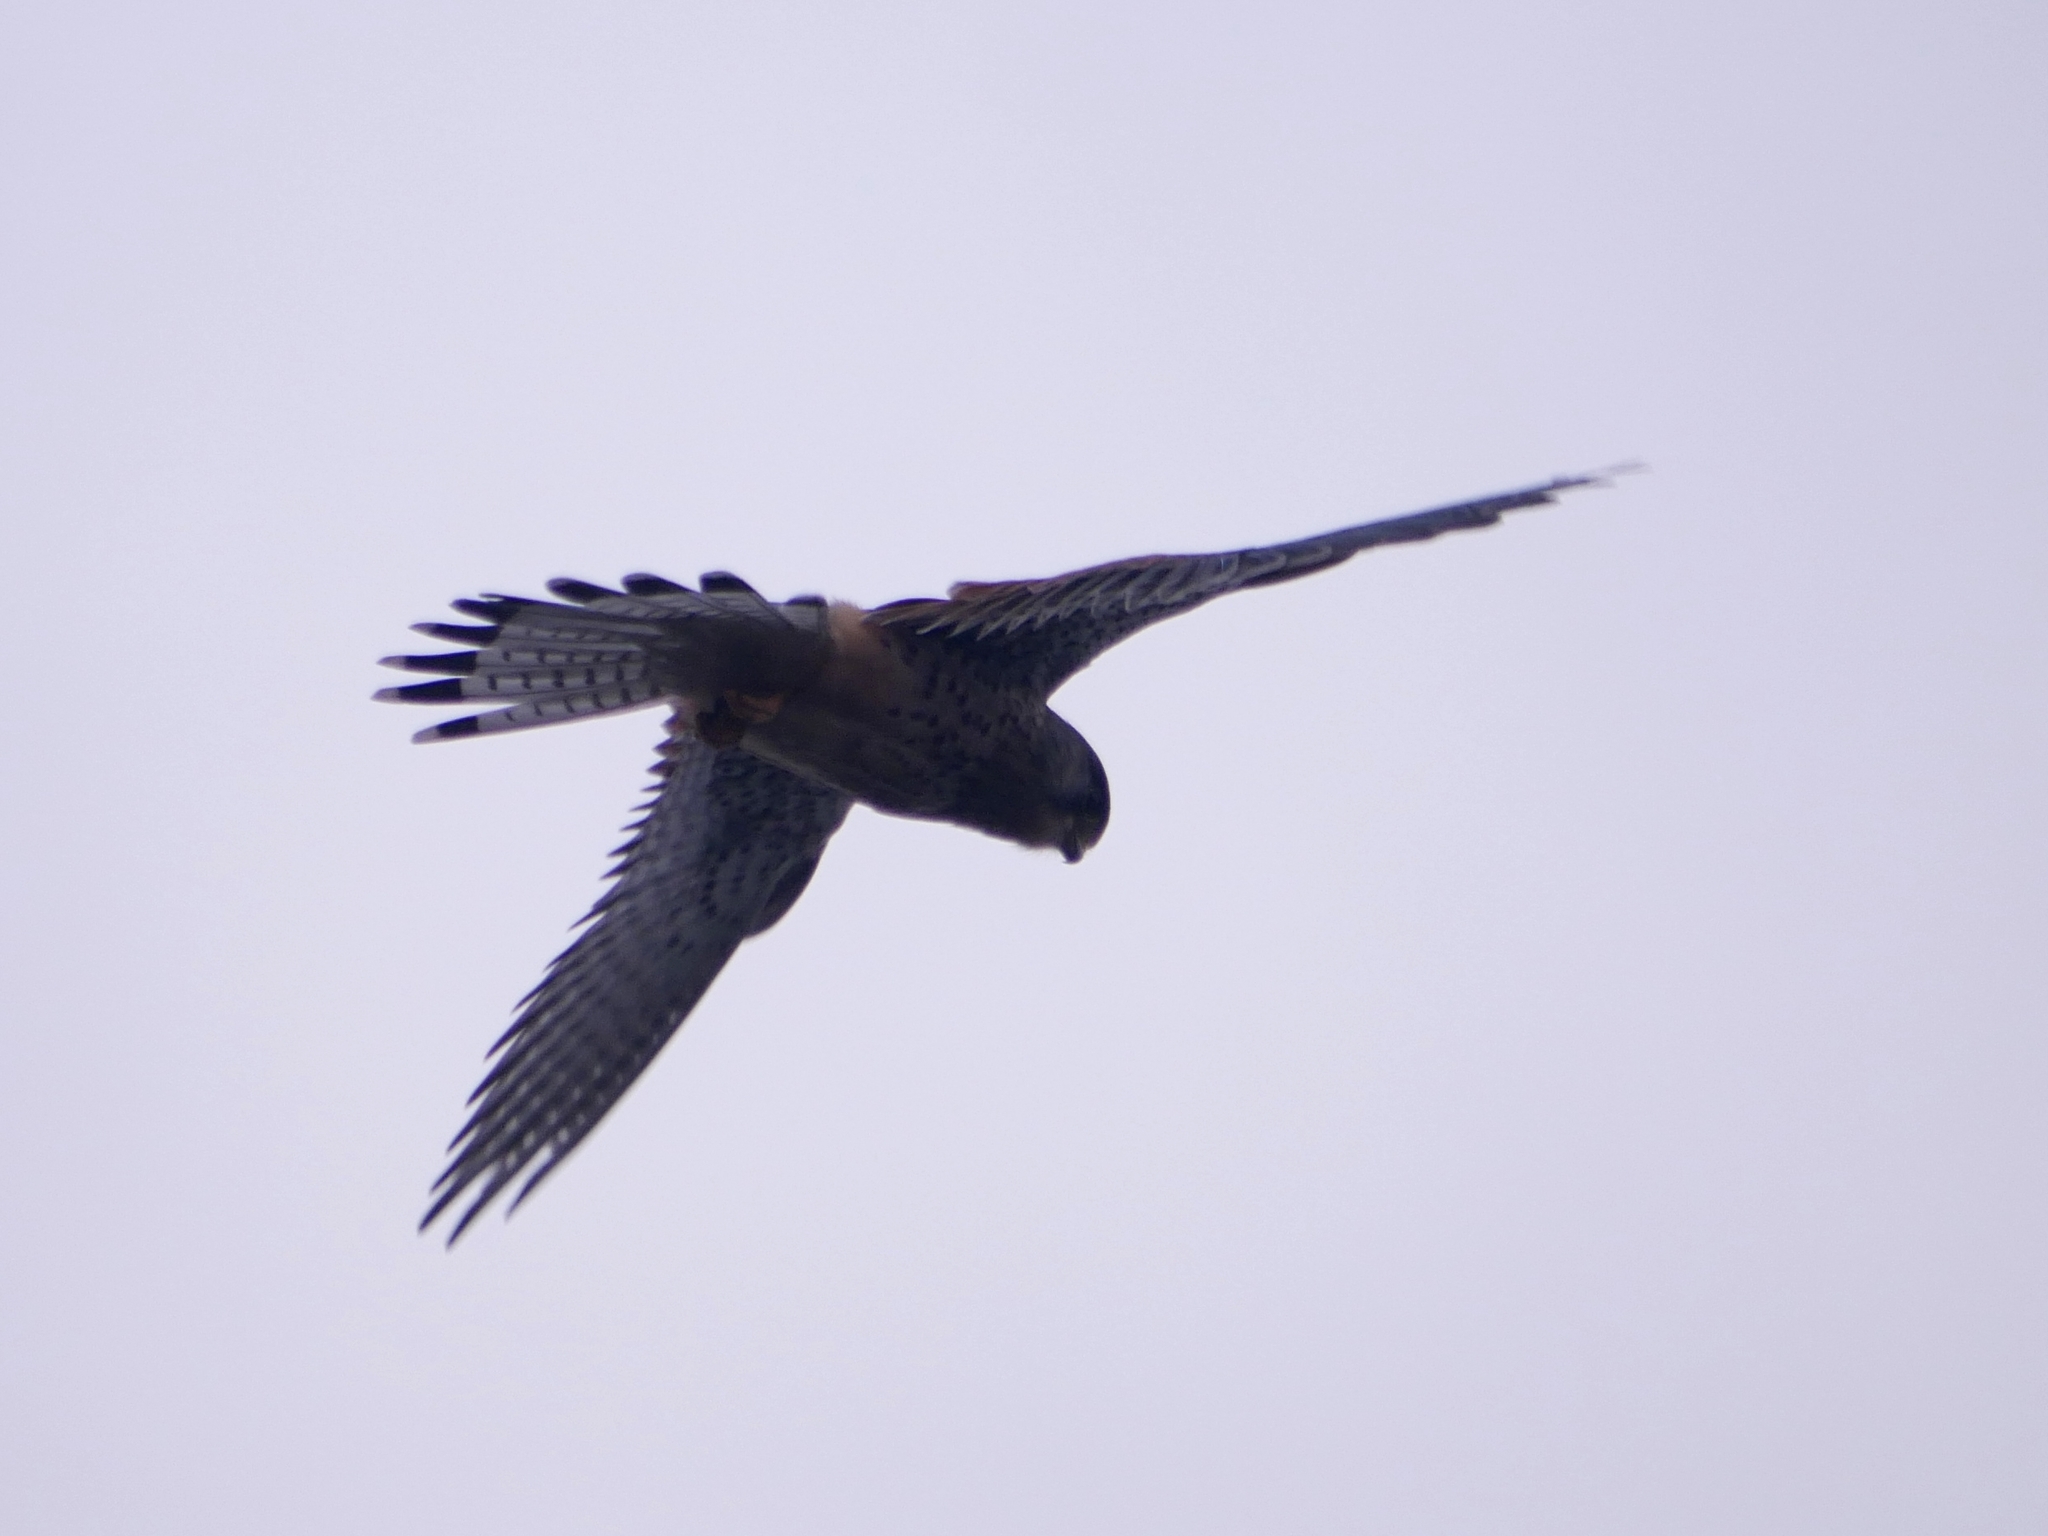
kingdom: Animalia
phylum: Chordata
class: Aves
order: Falconiformes
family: Falconidae
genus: Falco
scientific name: Falco tinnunculus
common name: Common kestrel
